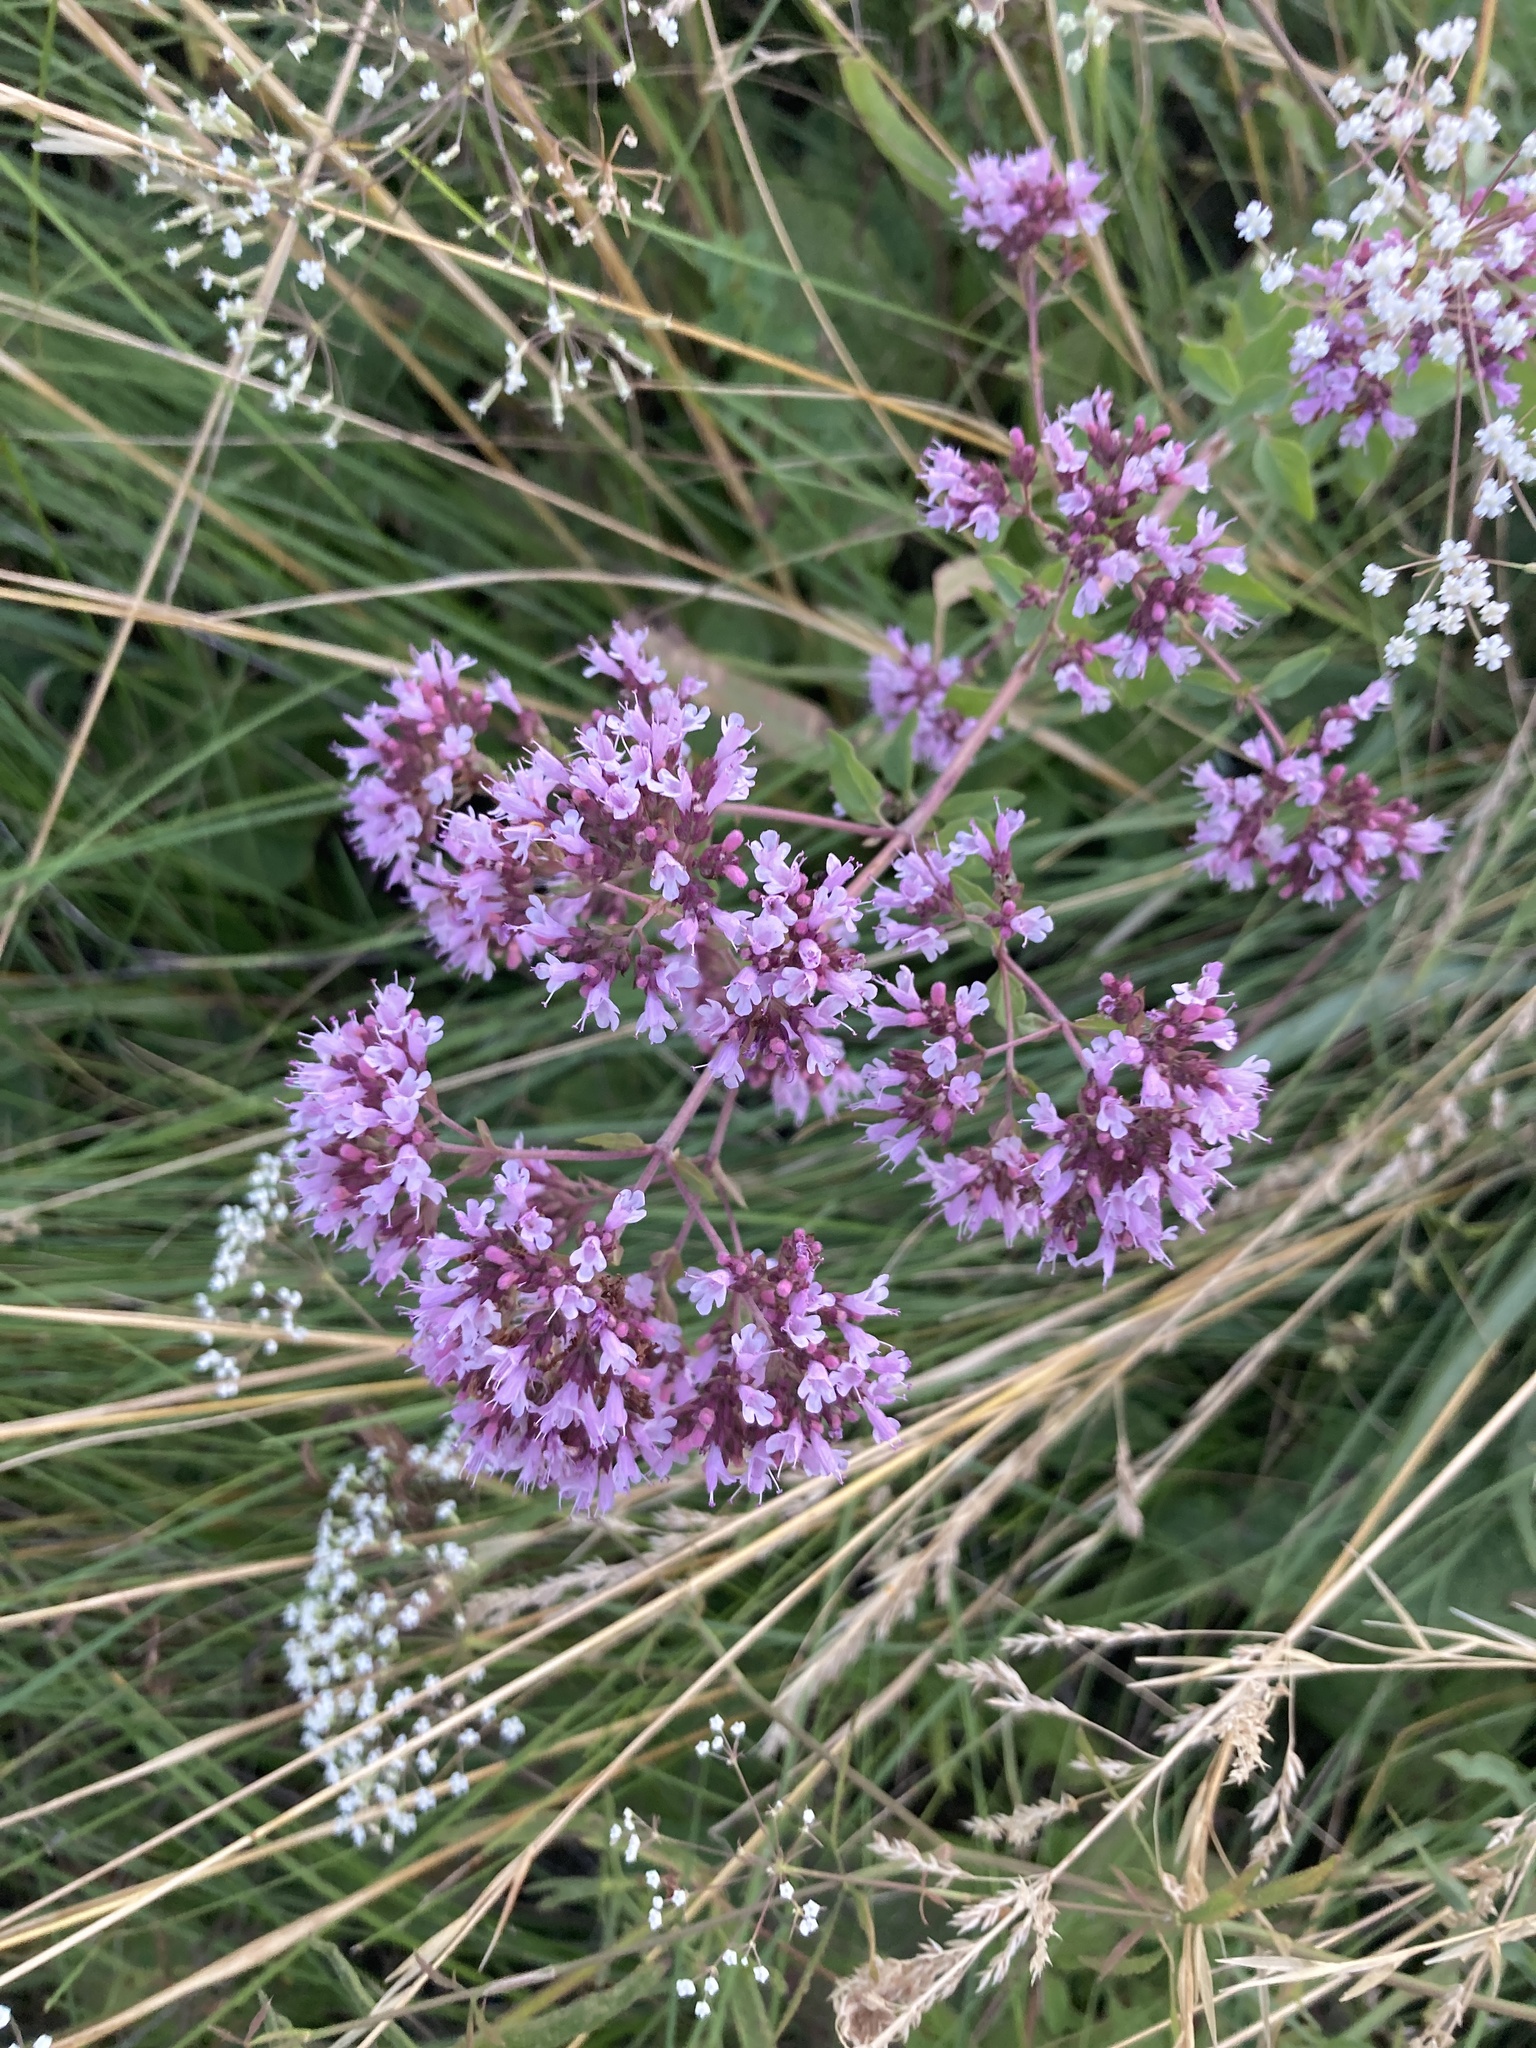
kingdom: Plantae
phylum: Tracheophyta
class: Magnoliopsida
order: Lamiales
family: Lamiaceae
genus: Origanum
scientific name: Origanum vulgare
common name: Wild marjoram
